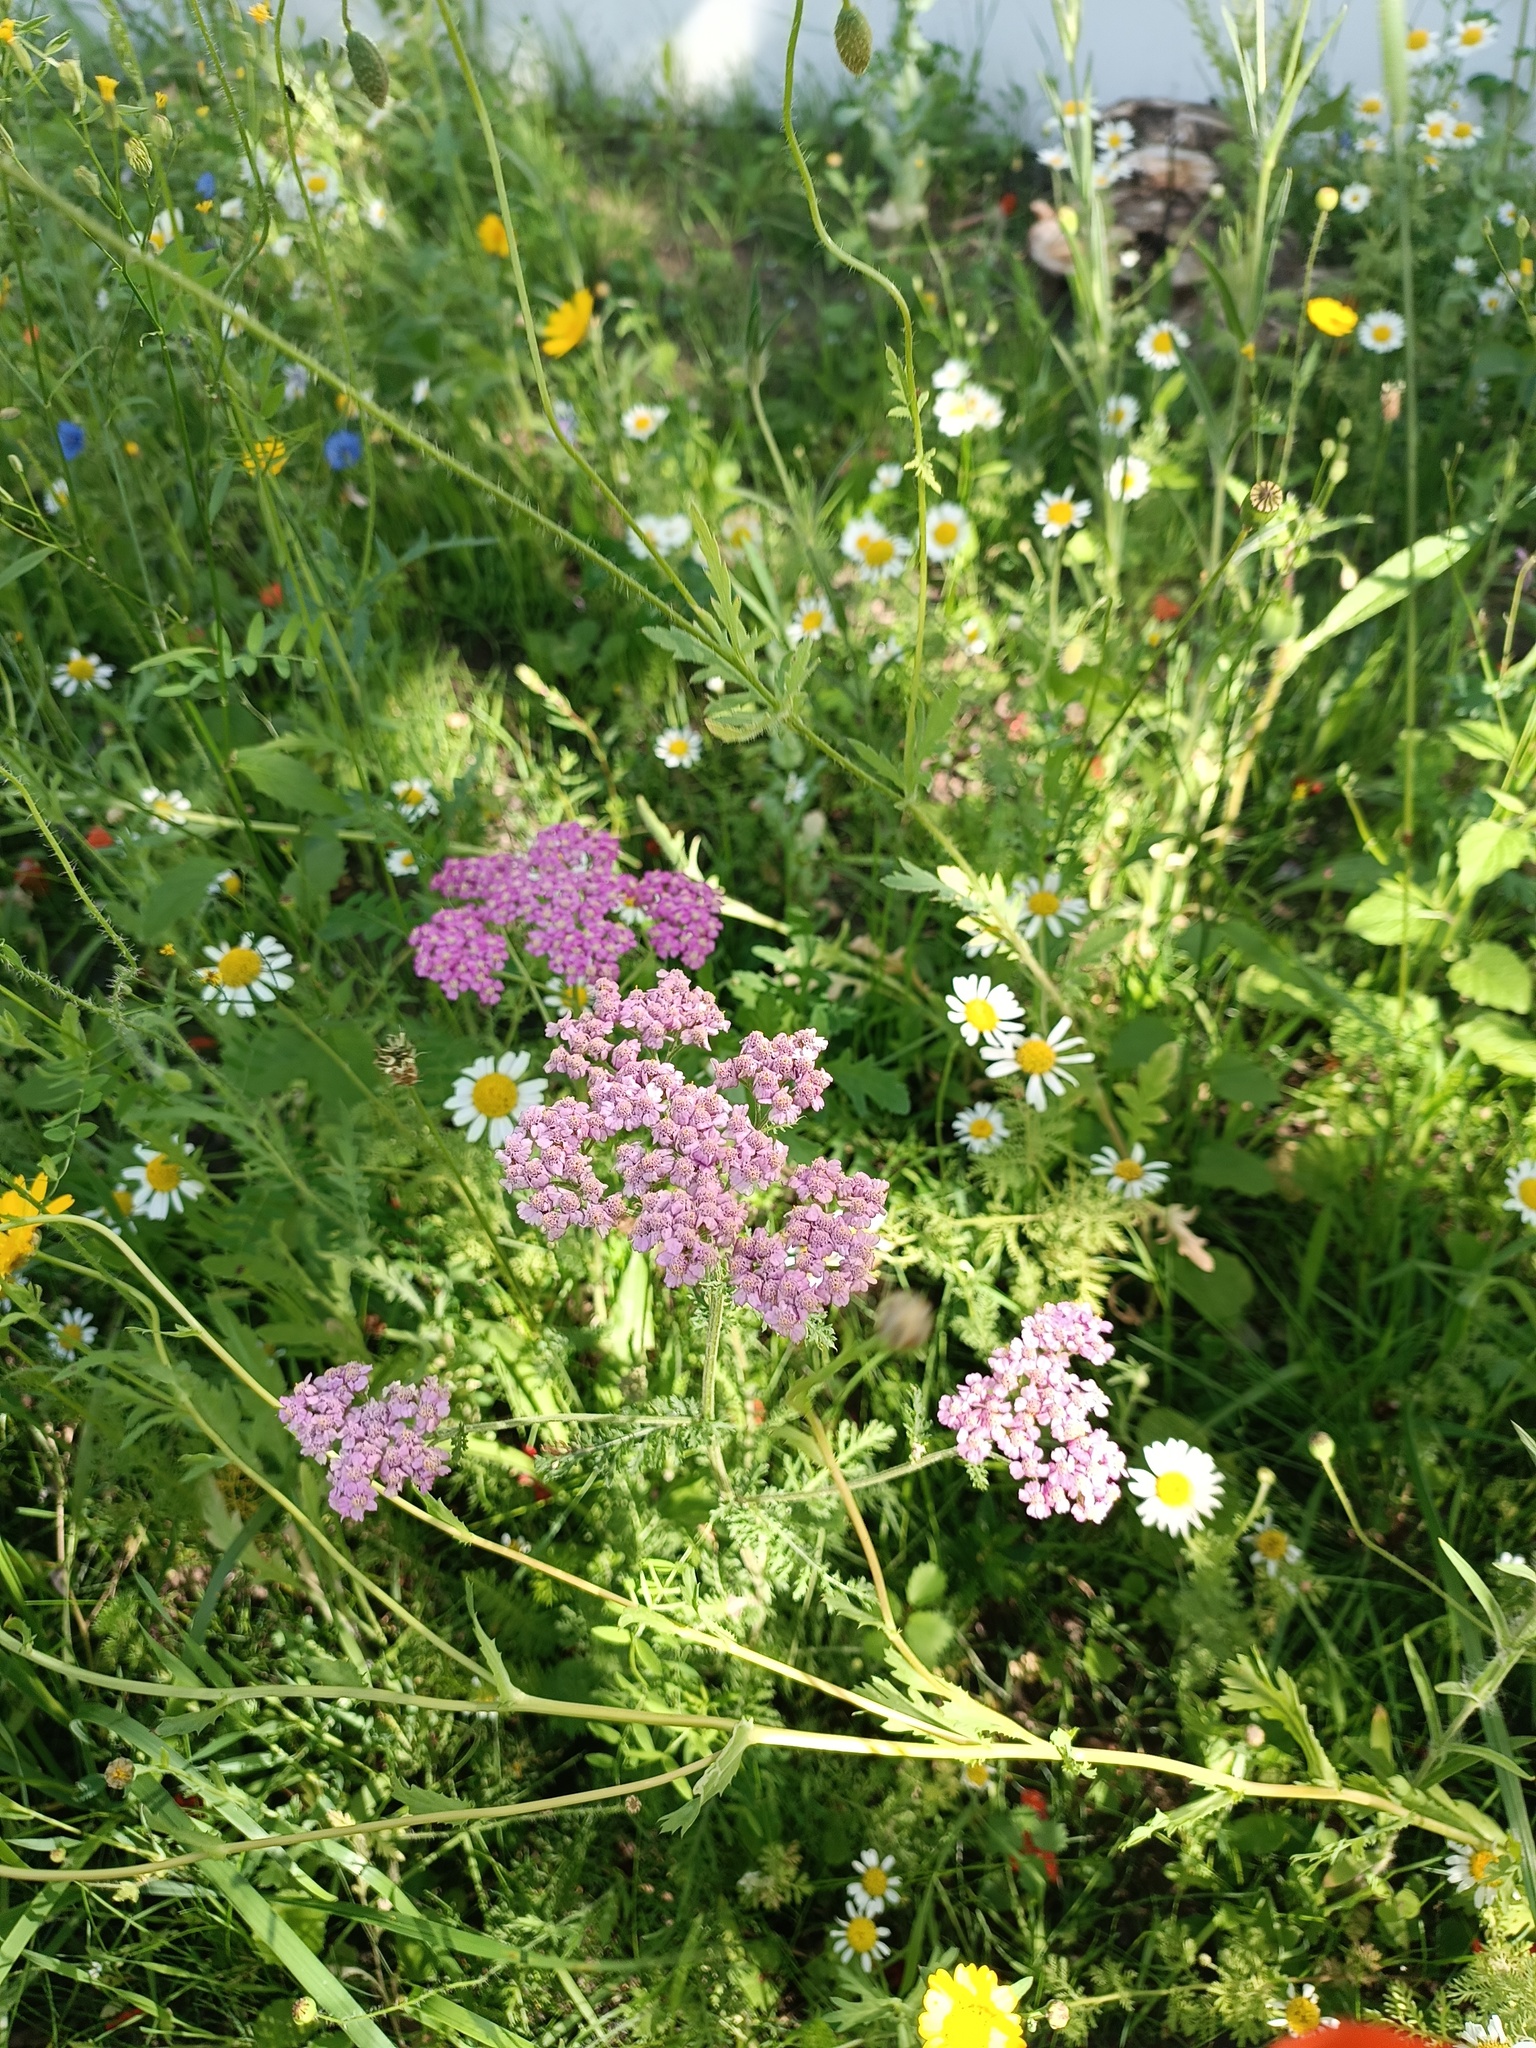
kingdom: Plantae
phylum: Tracheophyta
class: Magnoliopsida
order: Asterales
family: Asteraceae
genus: Achillea
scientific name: Achillea millefolium
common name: Yarrow
